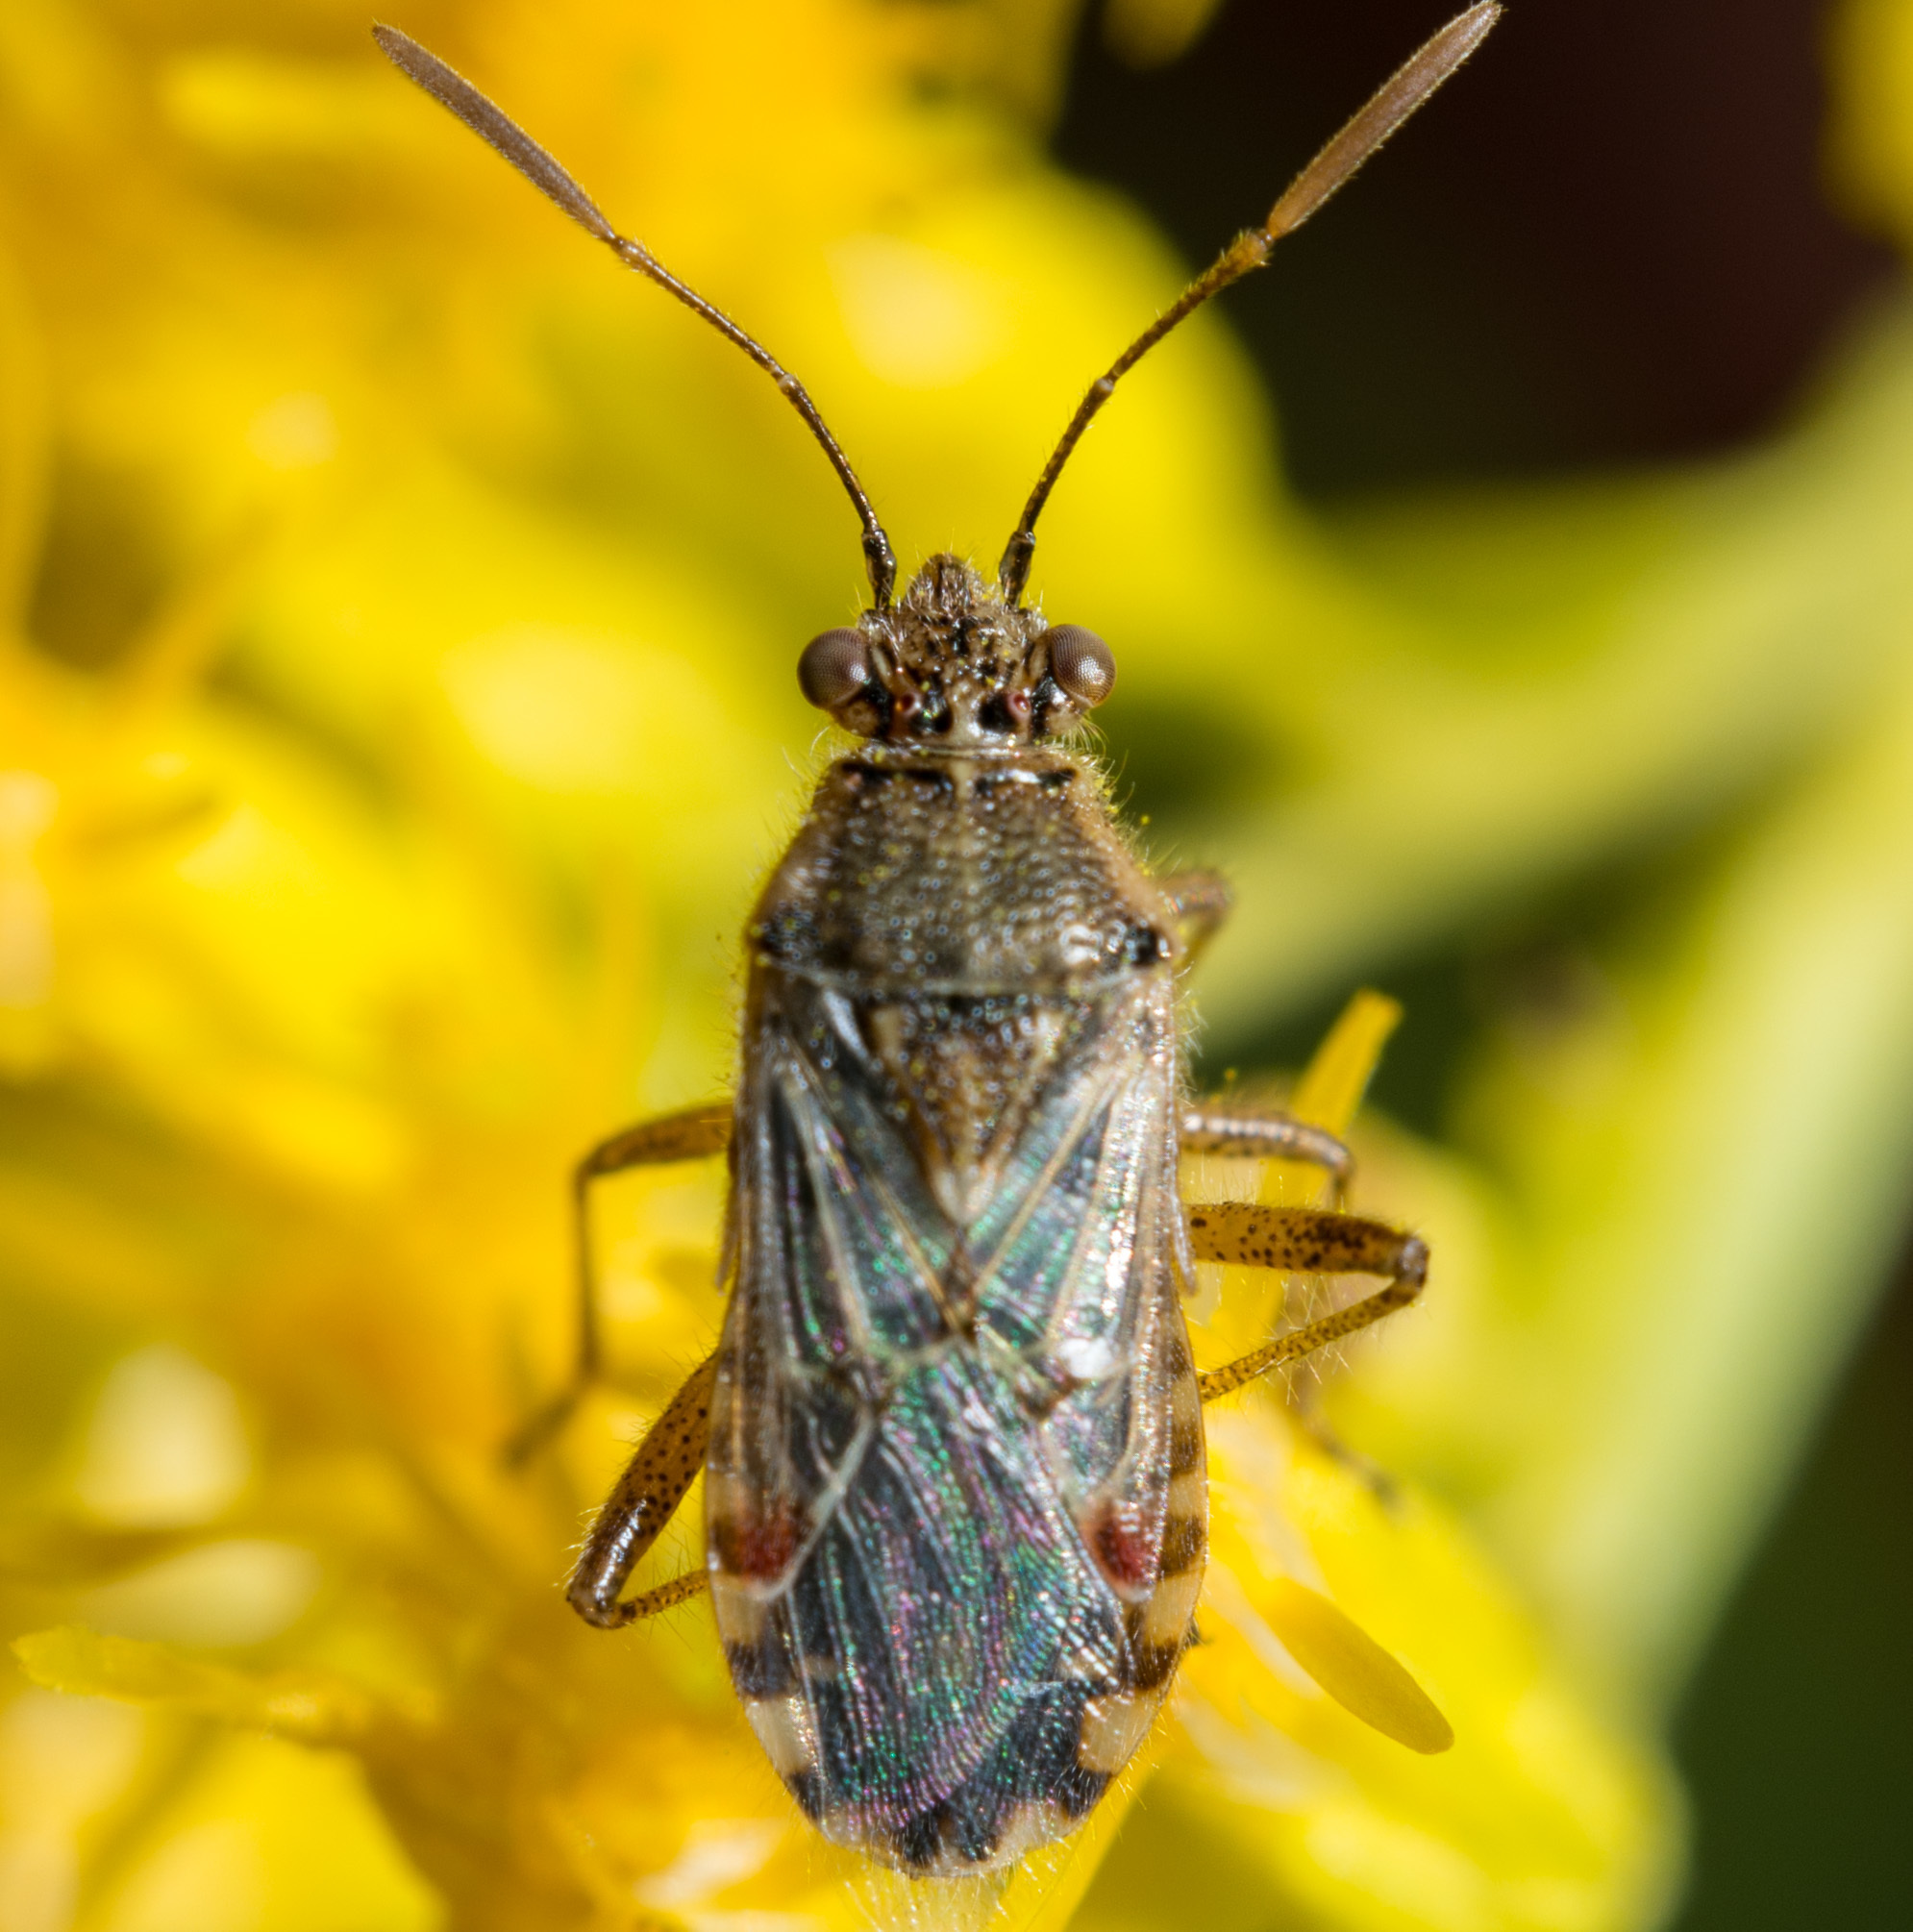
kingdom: Animalia
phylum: Arthropoda
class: Insecta
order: Hemiptera
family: Rhopalidae
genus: Liorhyssus
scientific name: Liorhyssus hyalinus
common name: Scentless plant bug
